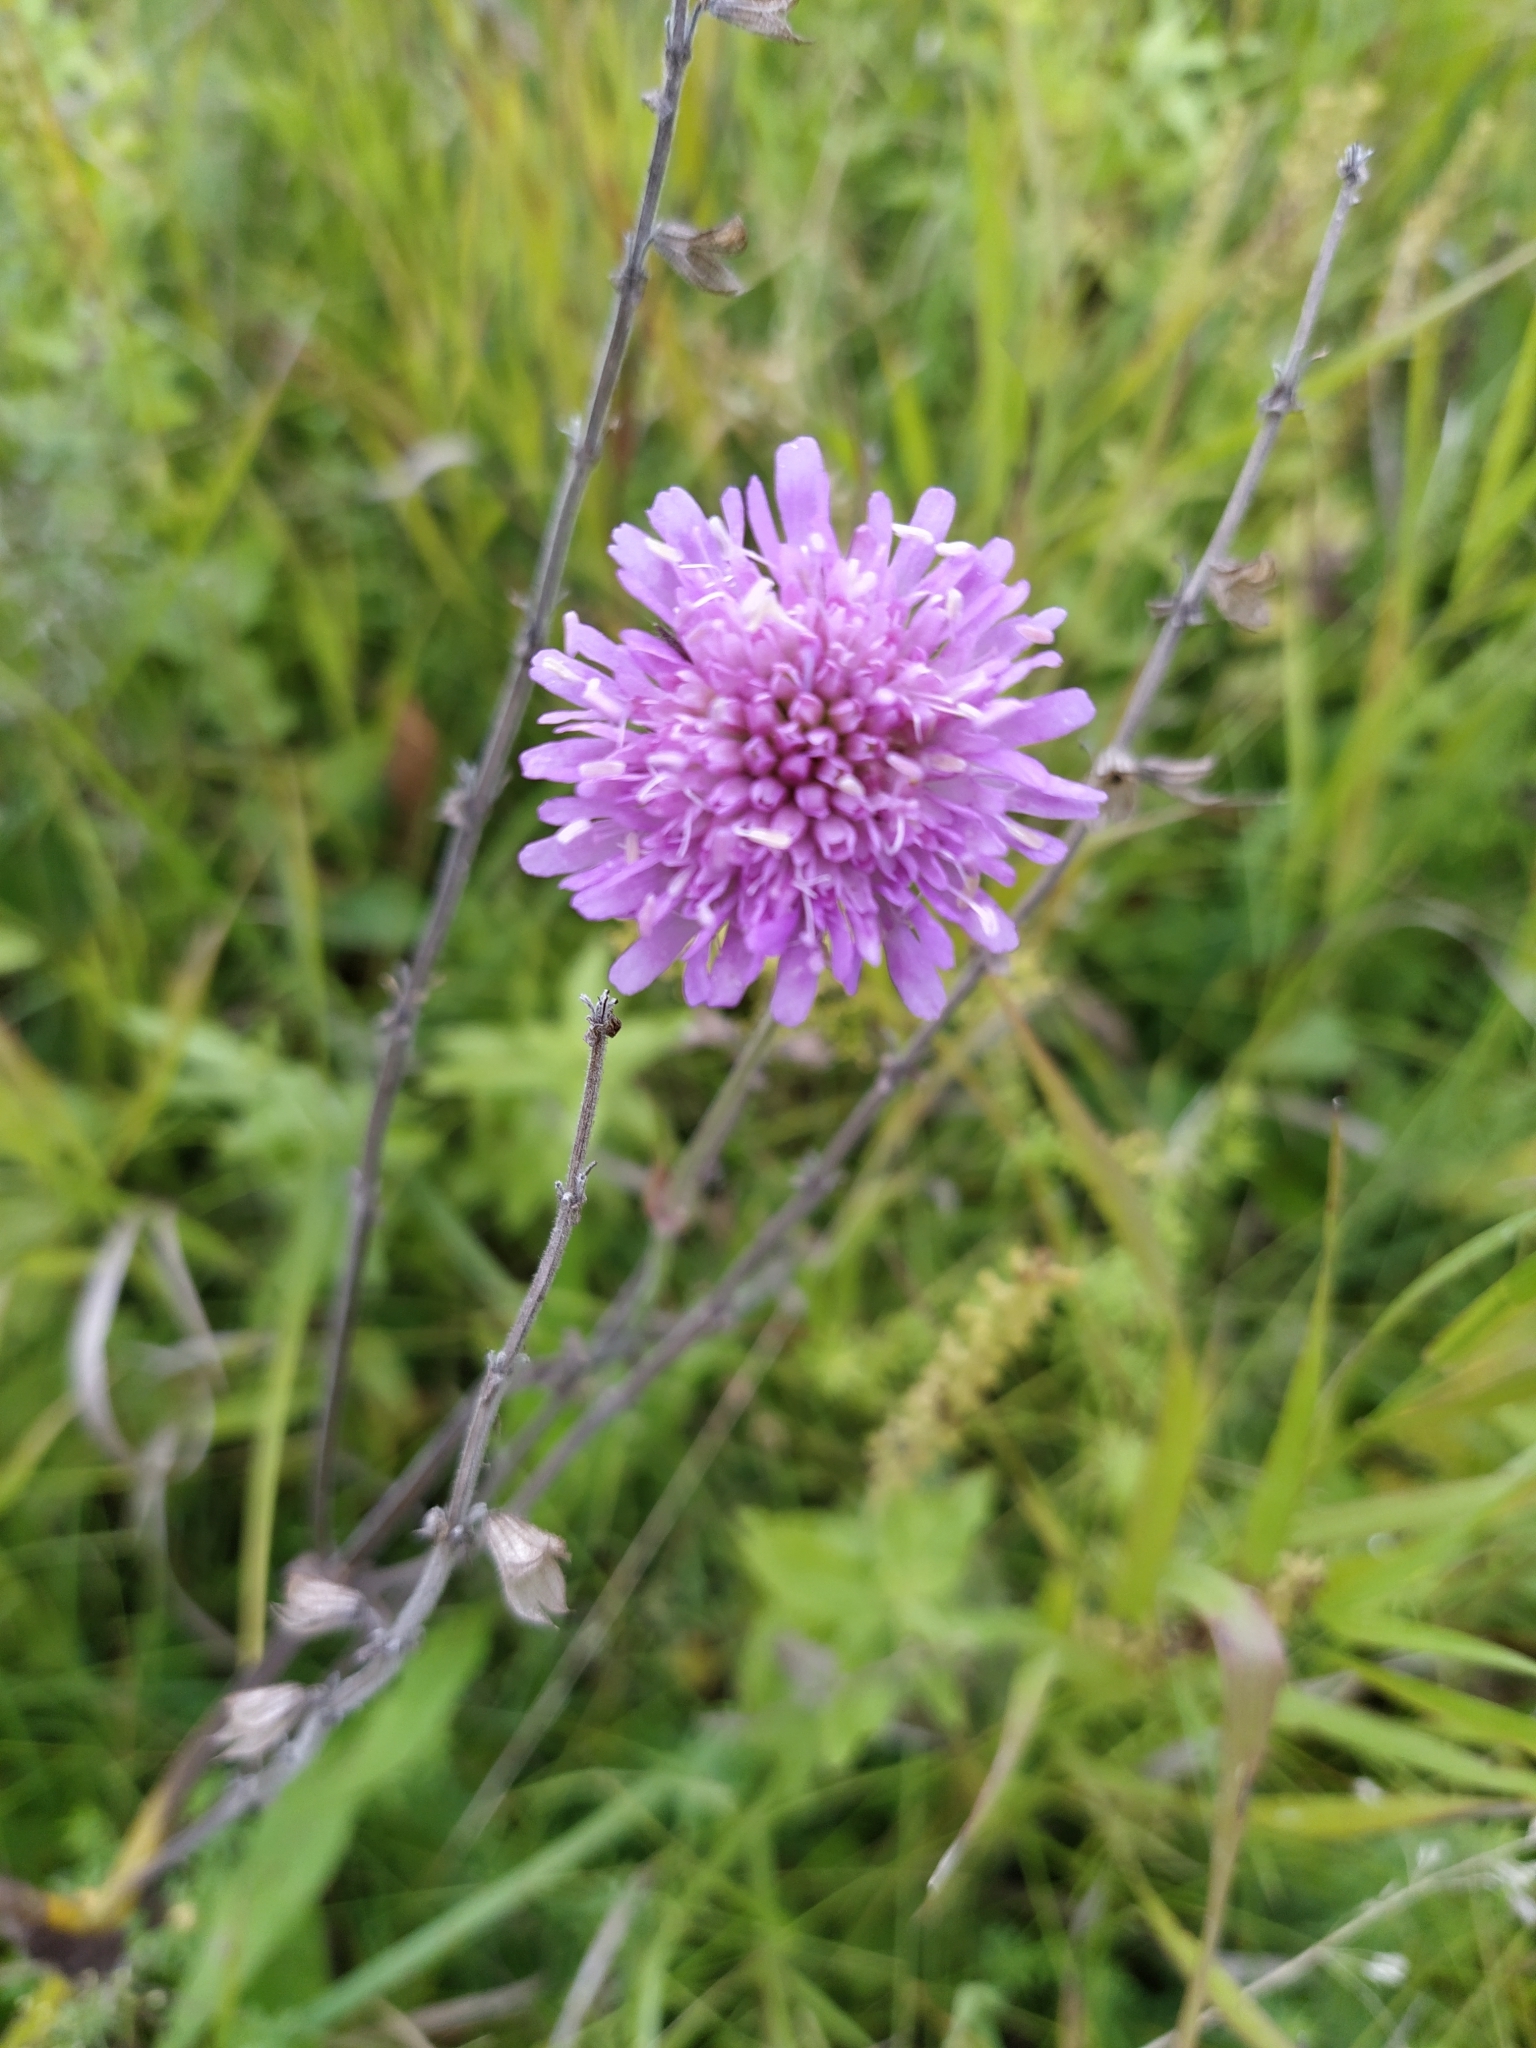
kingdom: Plantae
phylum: Tracheophyta
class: Magnoliopsida
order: Dipsacales
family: Caprifoliaceae
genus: Knautia
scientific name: Knautia arvensis
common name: Field scabiosa
